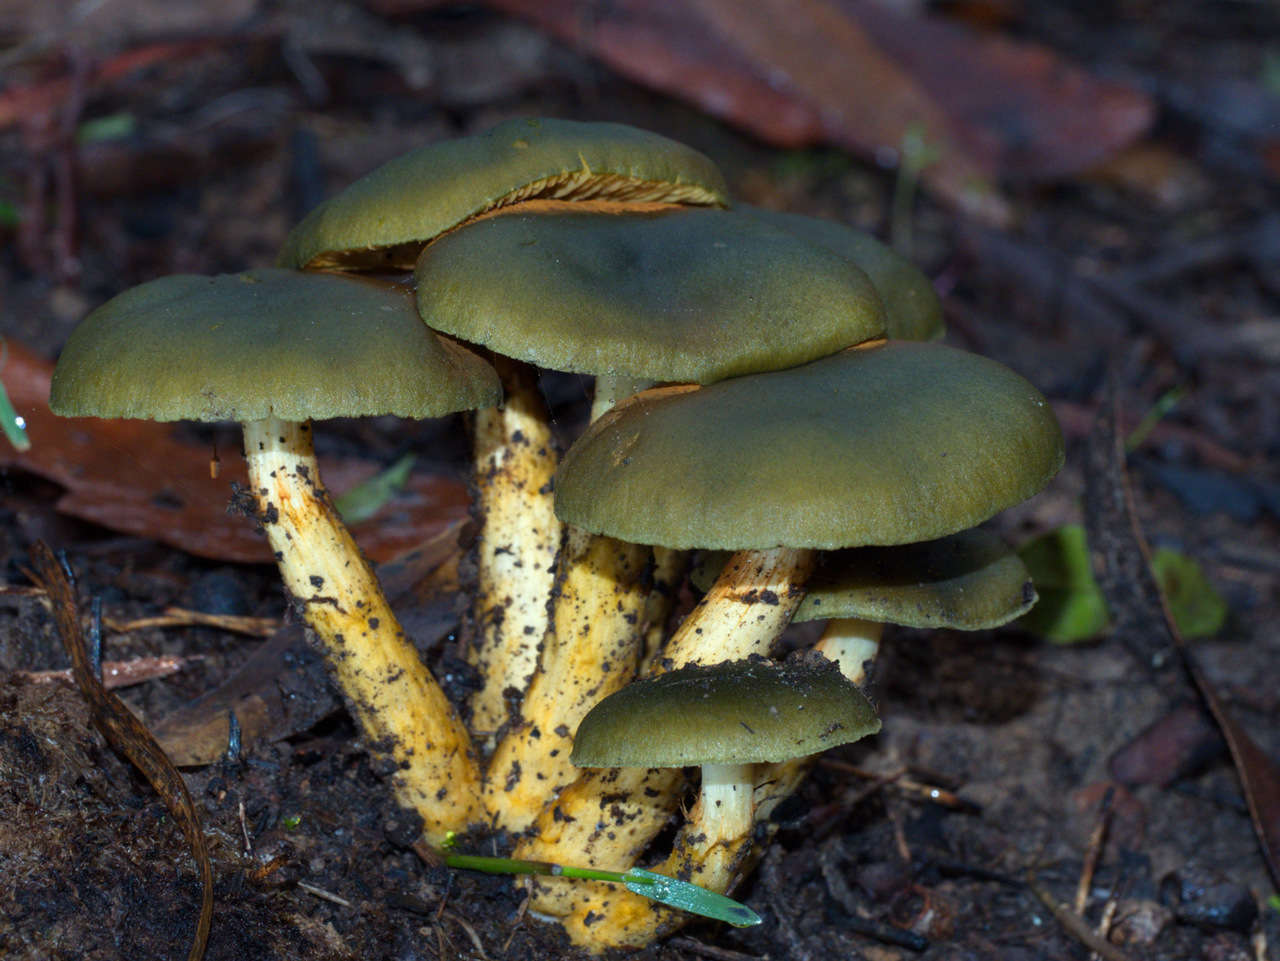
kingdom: Fungi
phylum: Basidiomycota
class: Agaricomycetes
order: Agaricales
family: Cortinariaceae
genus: Cortinarius
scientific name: Cortinarius austrovenetus
